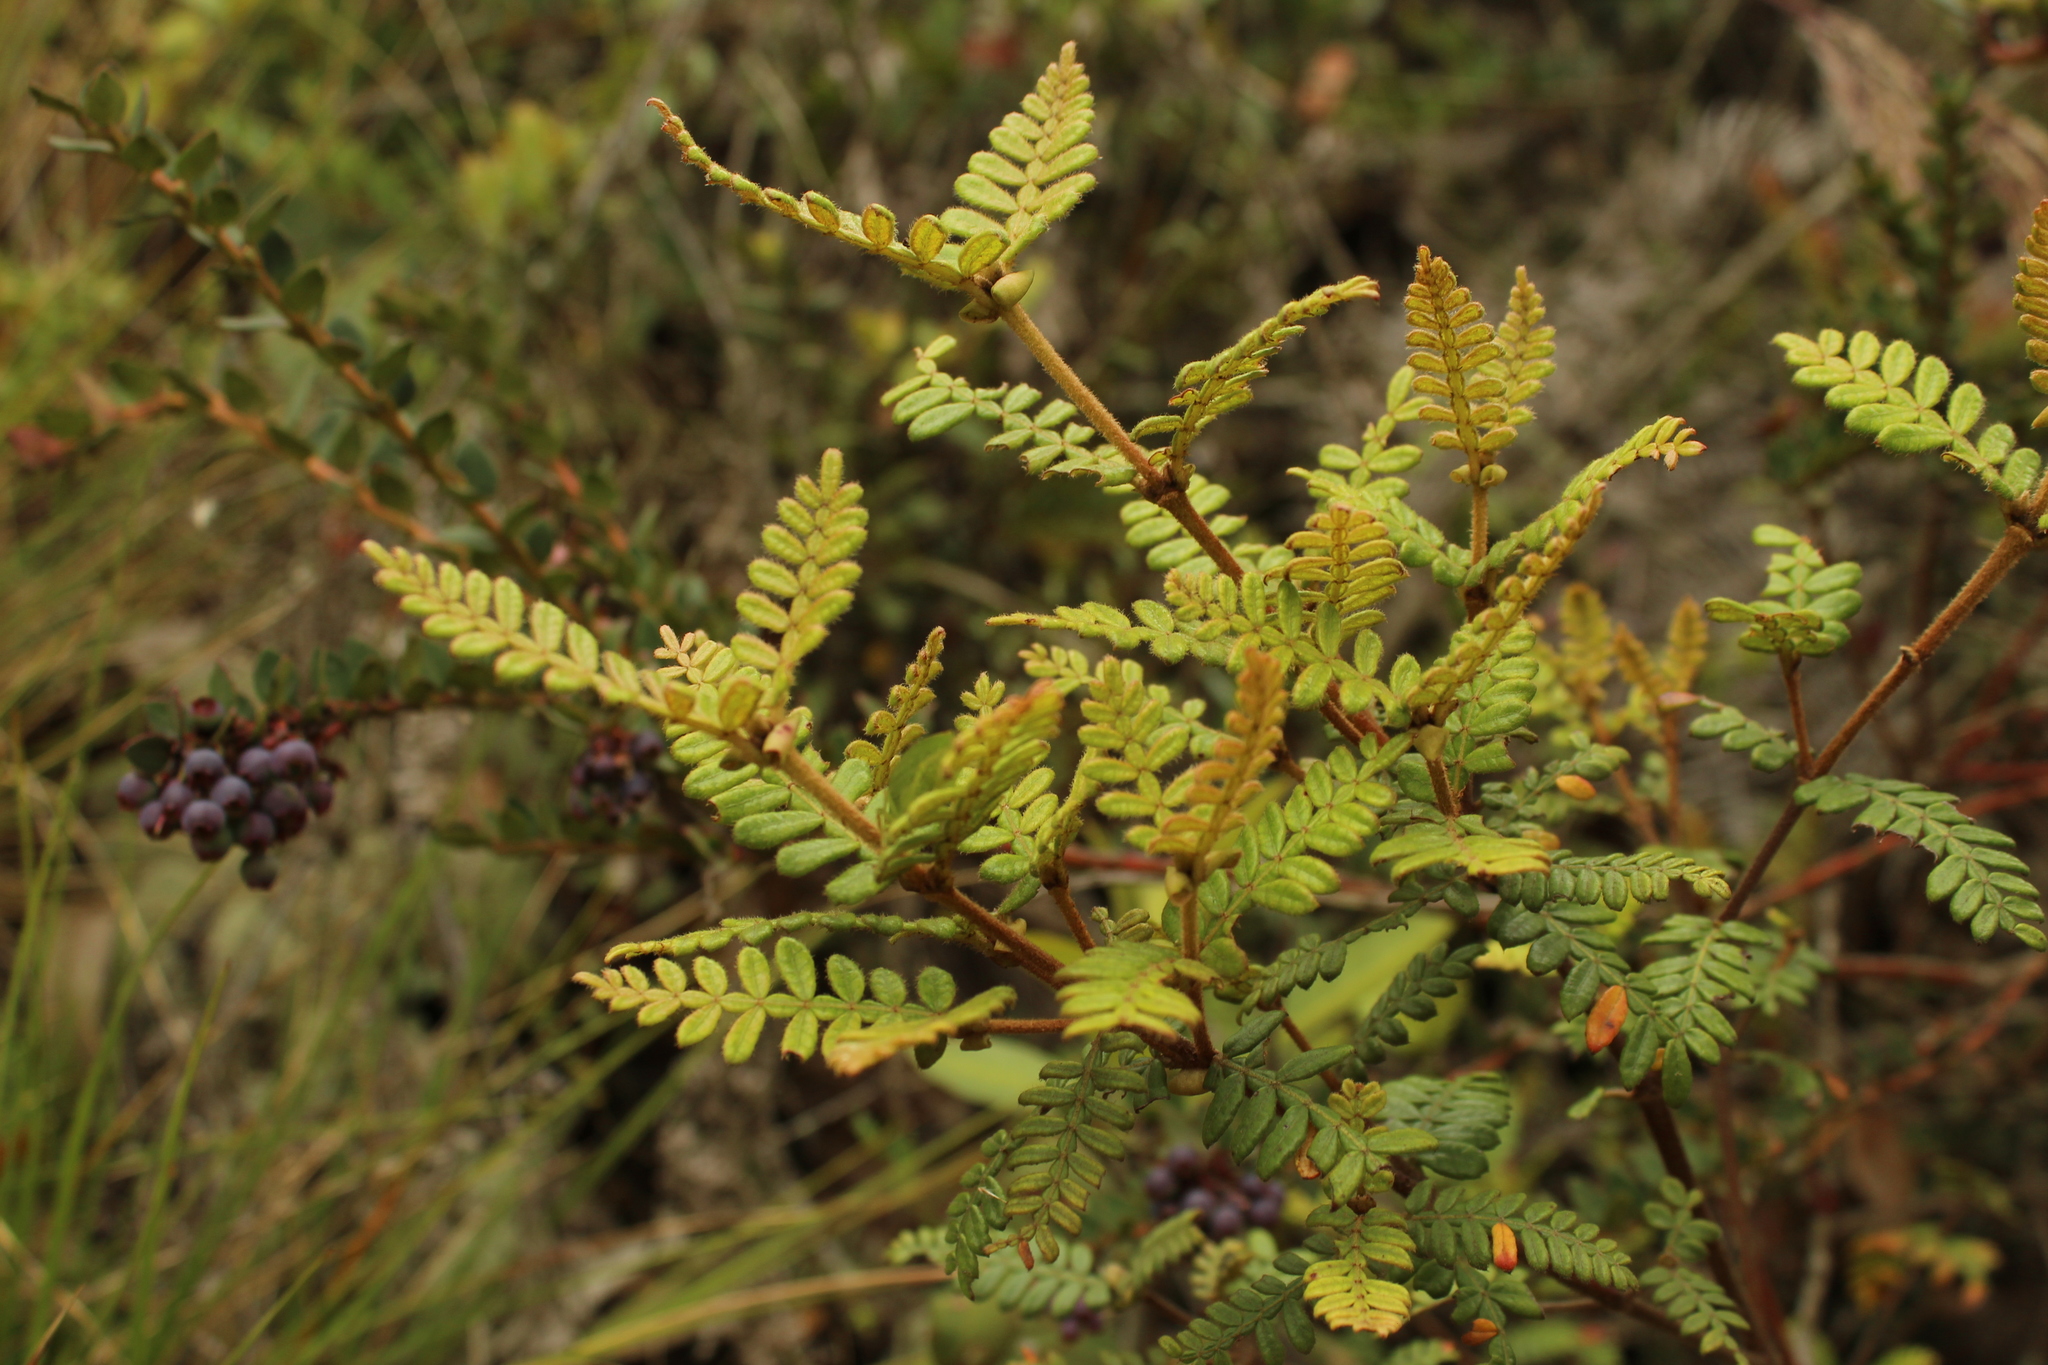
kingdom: Plantae
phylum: Tracheophyta
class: Magnoliopsida
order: Oxalidales
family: Cunoniaceae
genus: Weinmannia
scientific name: Weinmannia tomentosa
